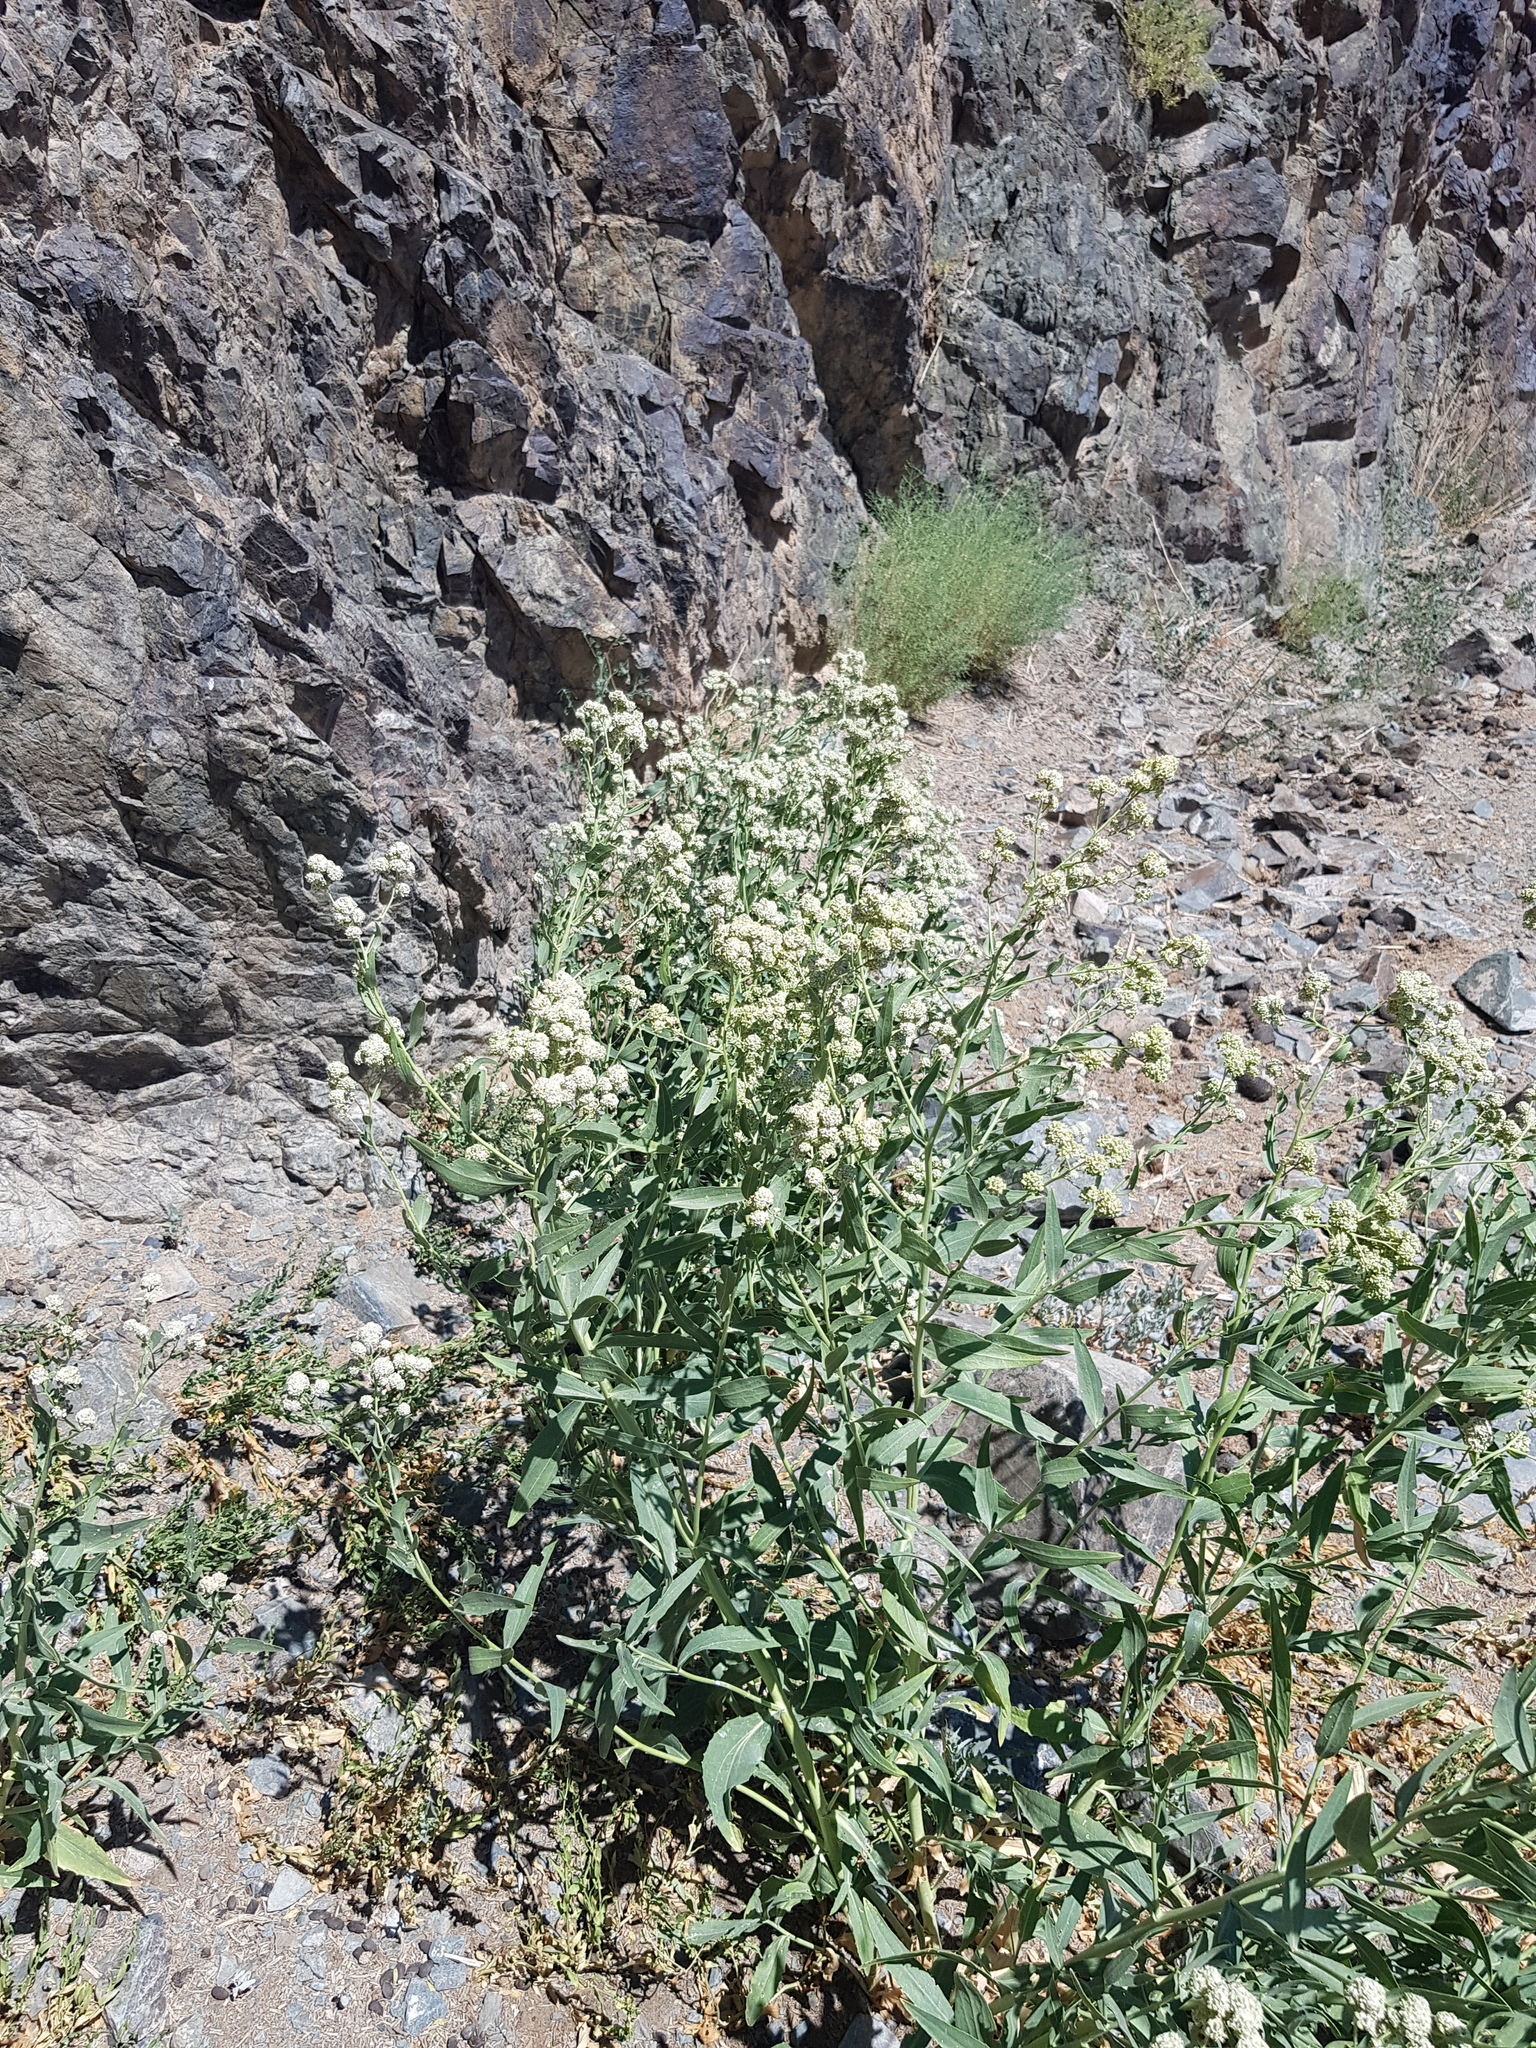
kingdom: Plantae
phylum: Tracheophyta
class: Magnoliopsida
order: Brassicales
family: Brassicaceae
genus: Lepidium
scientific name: Lepidium latifolium
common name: Dittander
